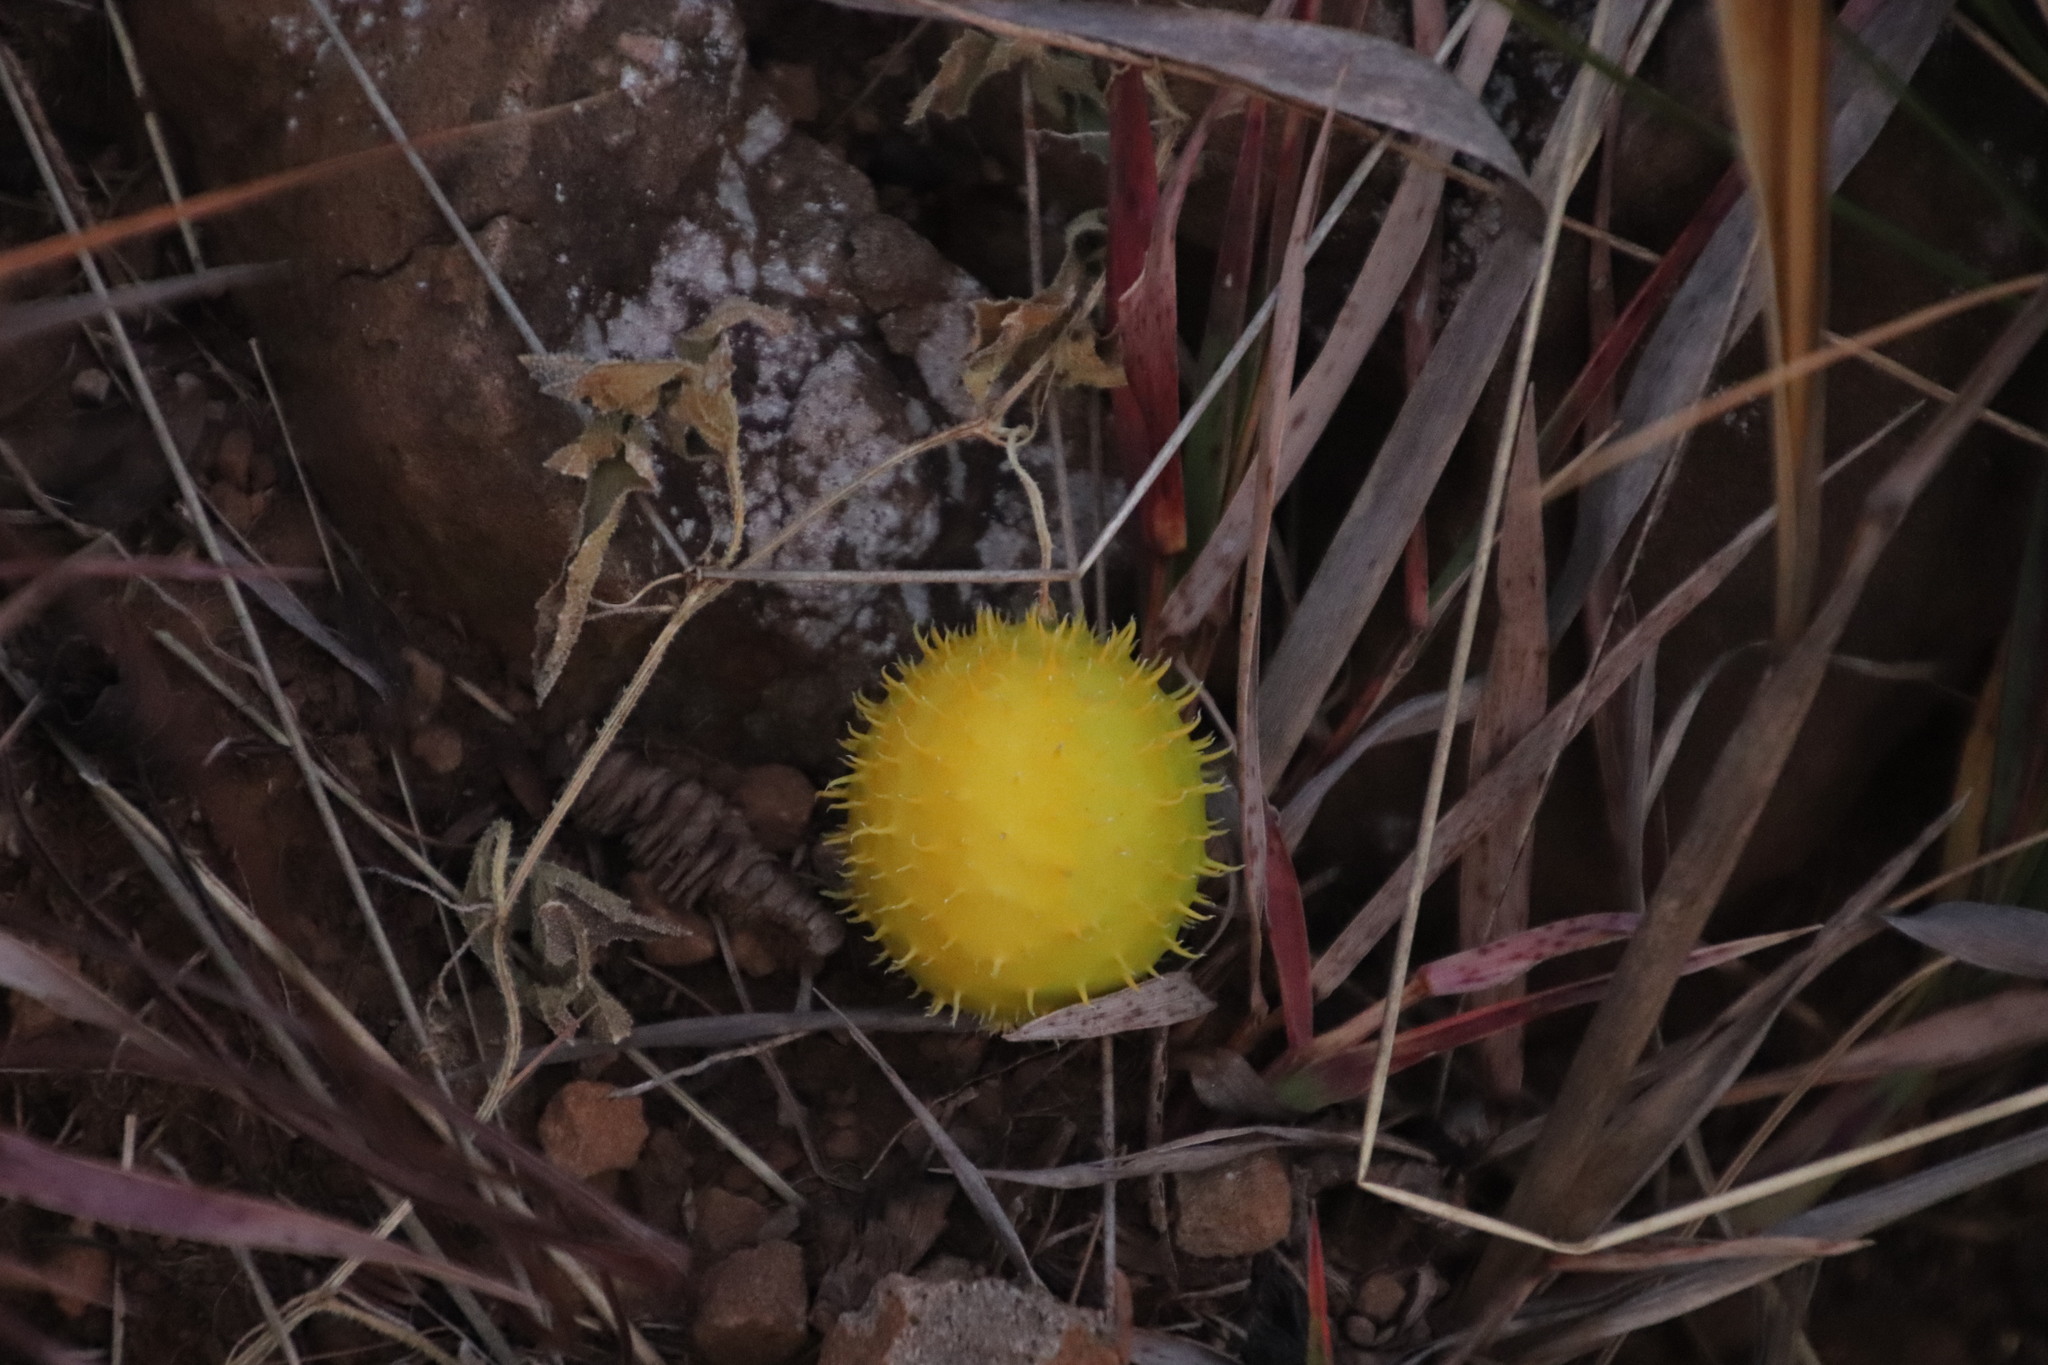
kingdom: Plantae
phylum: Tracheophyta
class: Magnoliopsida
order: Cucurbitales
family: Cucurbitaceae
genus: Cucumis
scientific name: Cucumis myriocarpus
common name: Gooseberry cucumber
